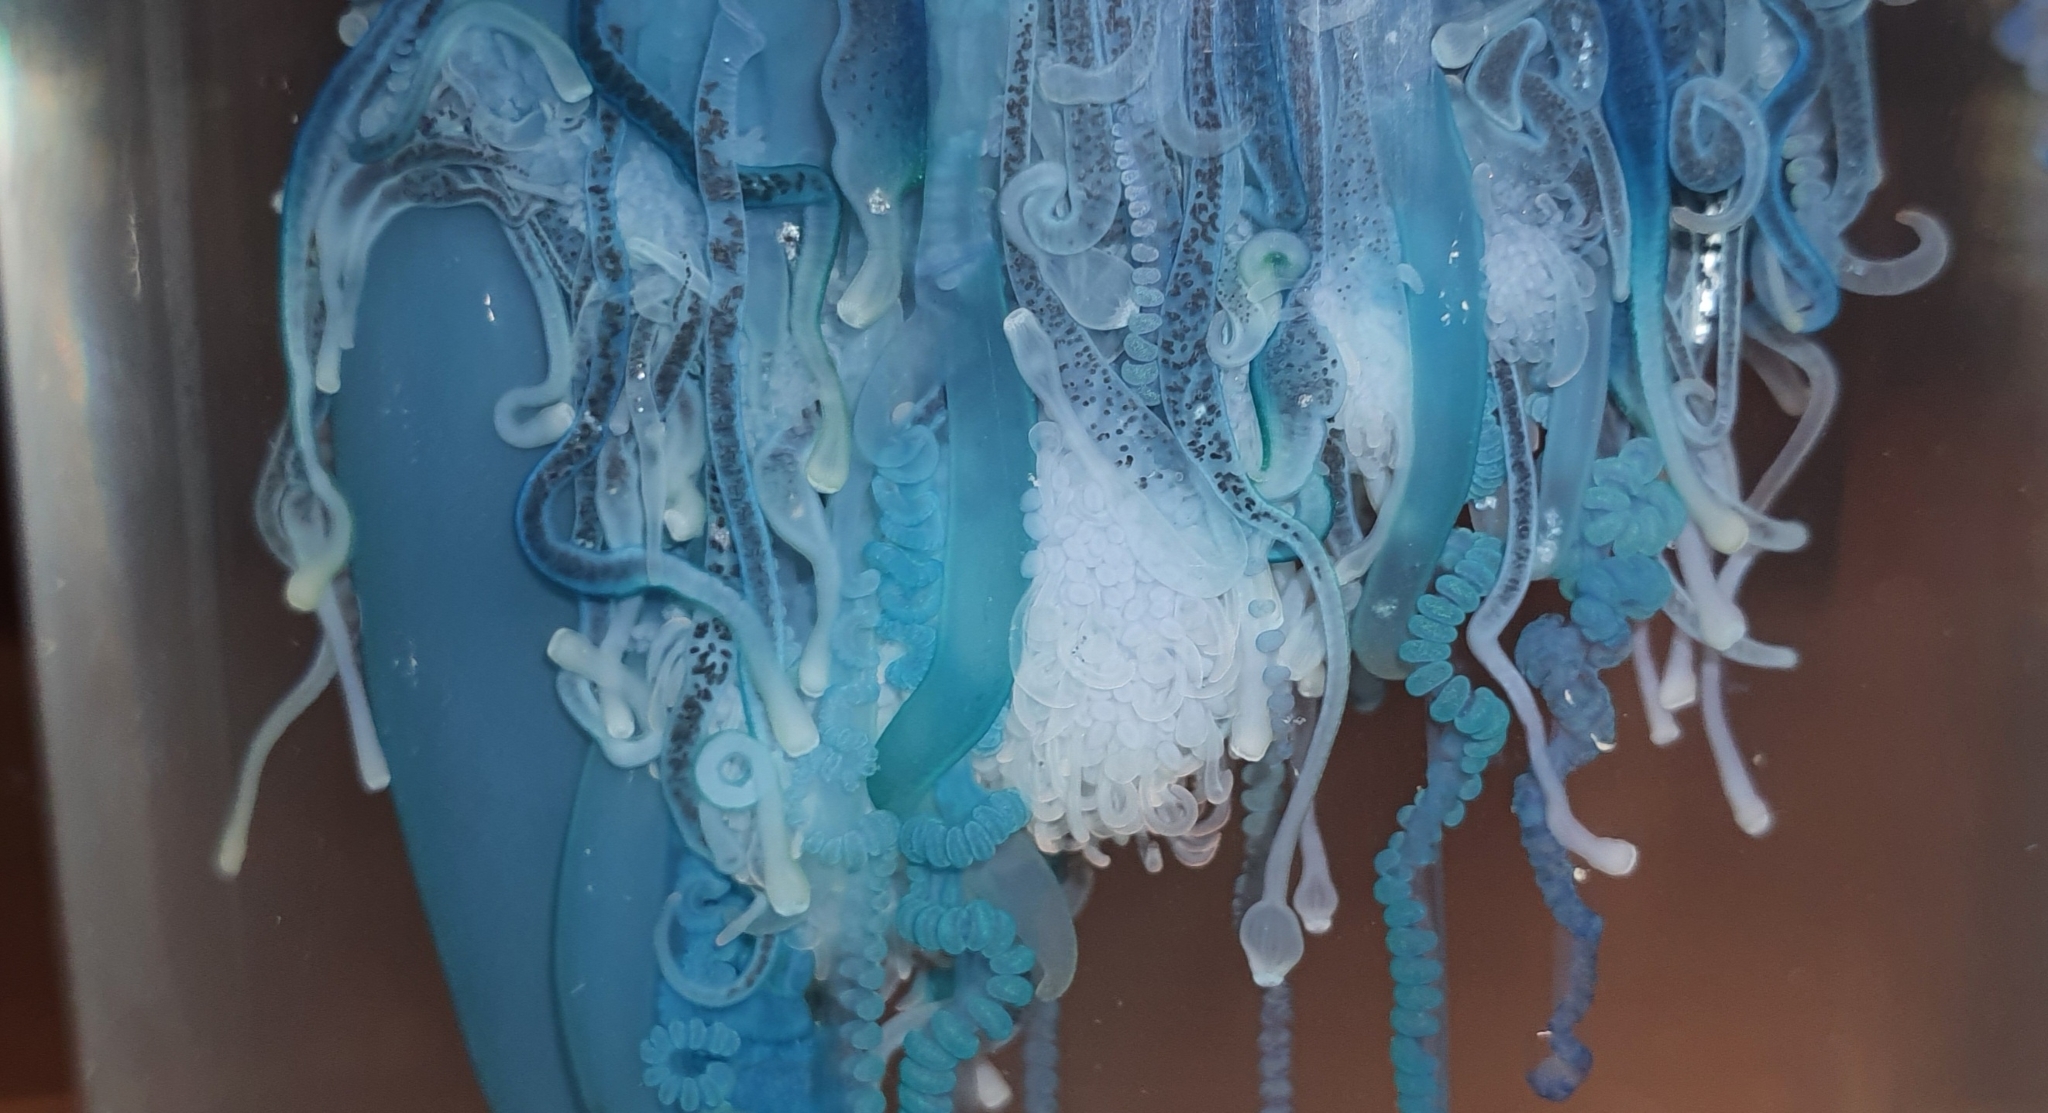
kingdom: Animalia
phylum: Cnidaria
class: Hydrozoa
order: Siphonophorae
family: Physaliidae
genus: Physalia
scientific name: Physalia physalis
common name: Portuguese man-of-war
